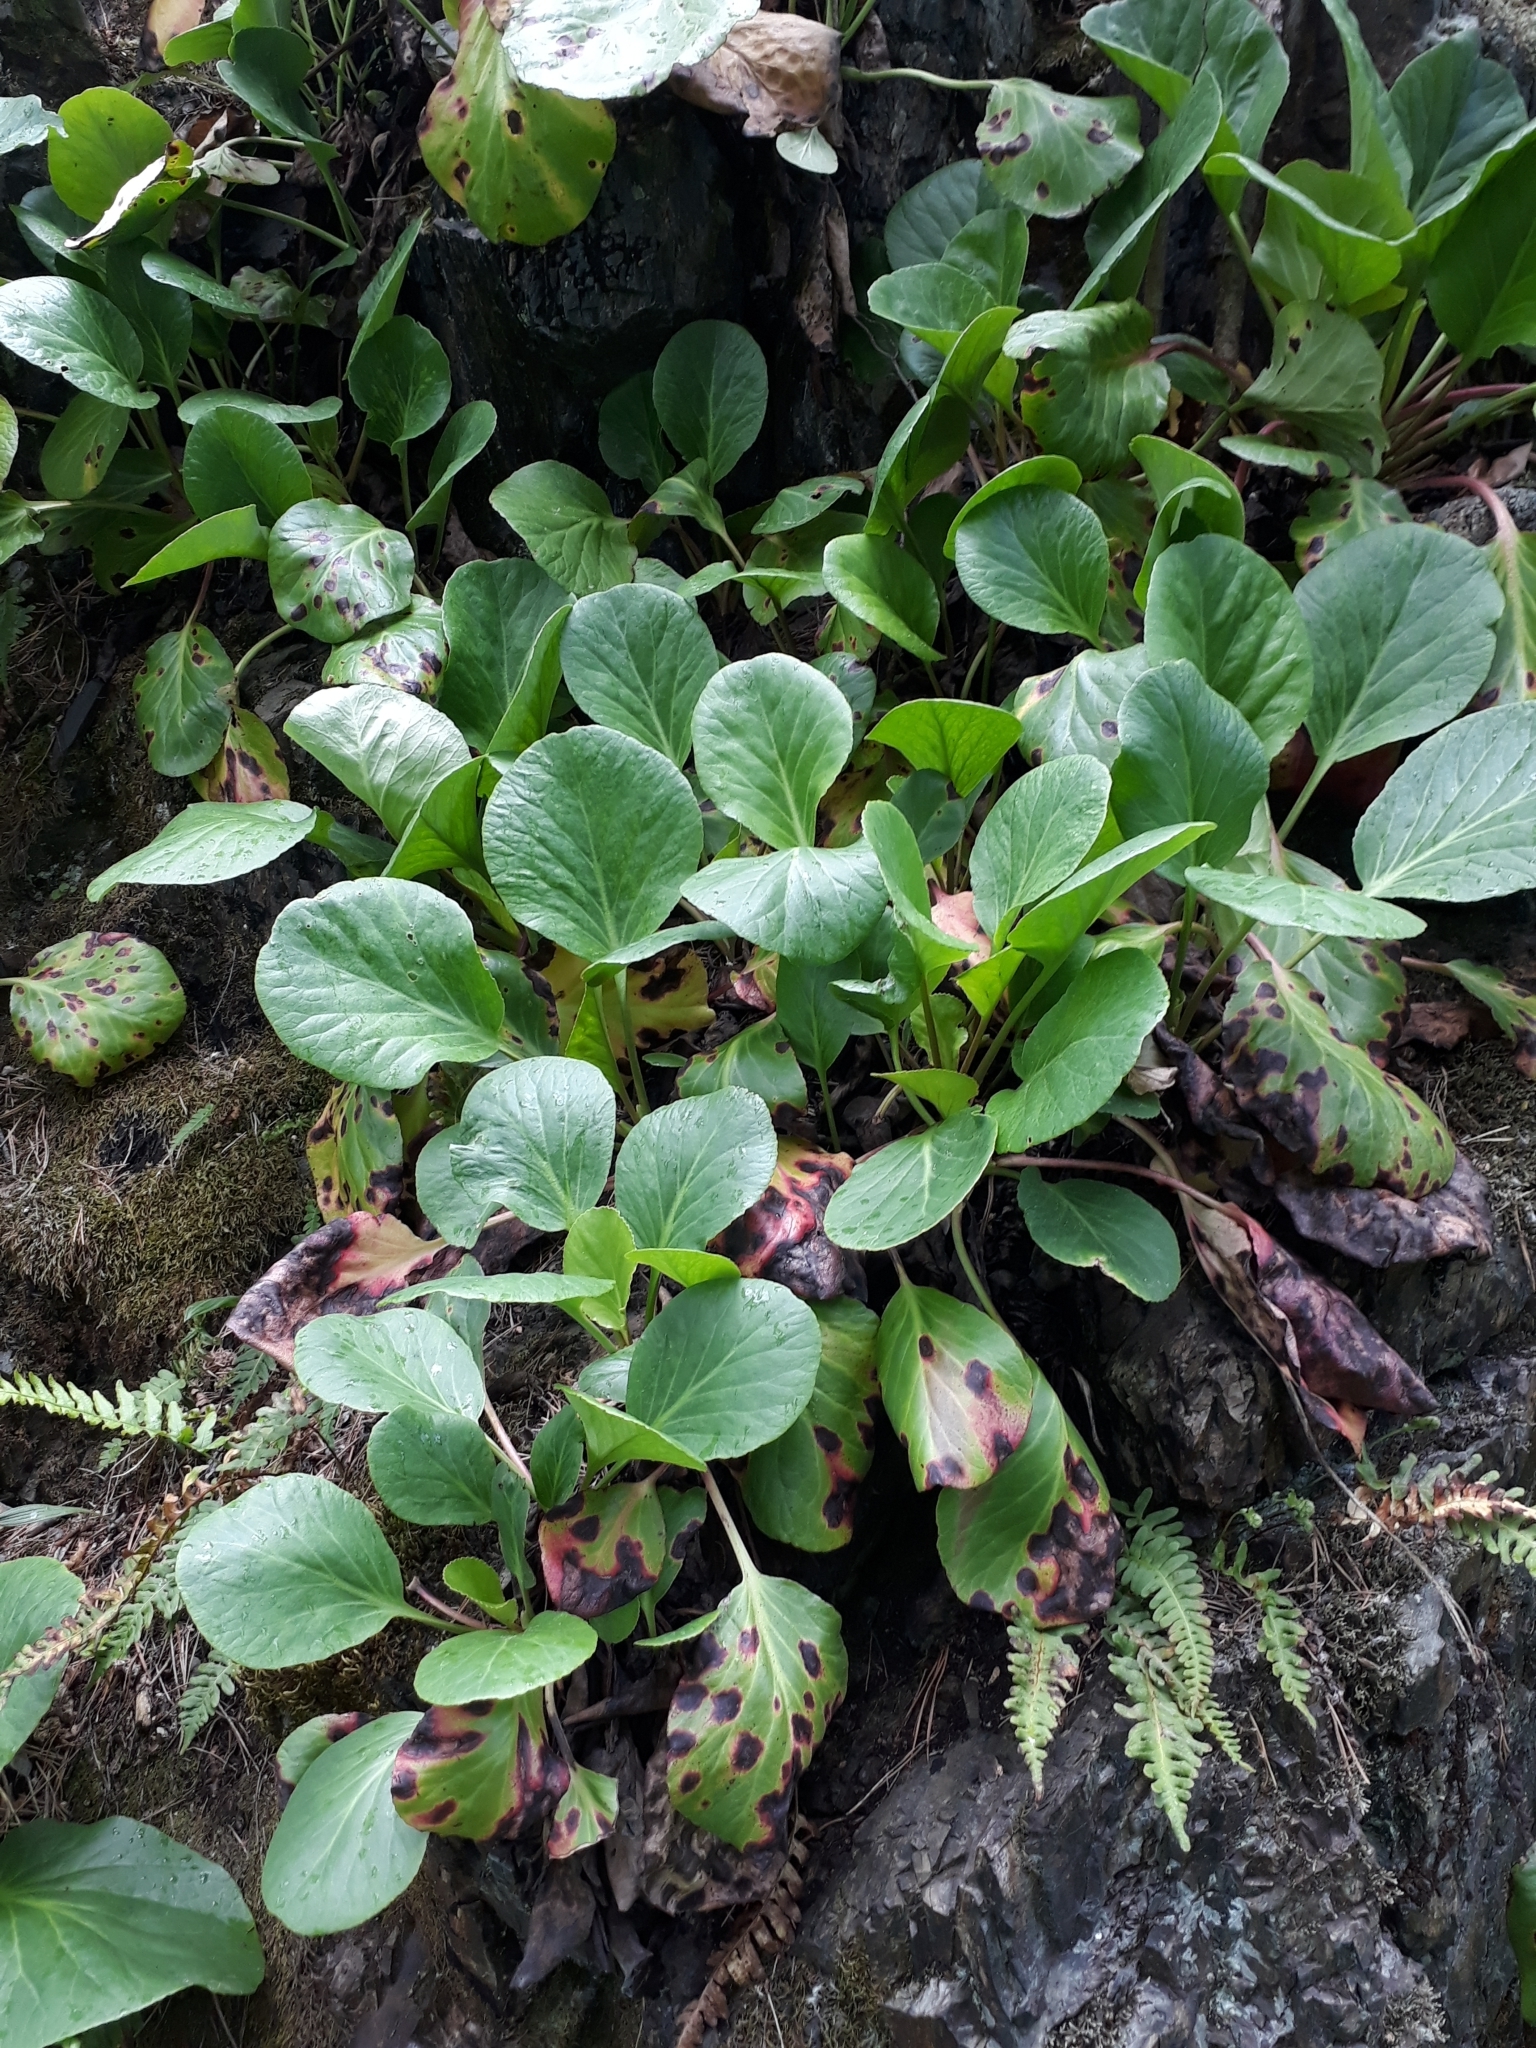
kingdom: Plantae
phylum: Tracheophyta
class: Magnoliopsida
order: Saxifragales
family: Saxifragaceae
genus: Bergenia
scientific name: Bergenia crassifolia
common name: Elephant-ears
